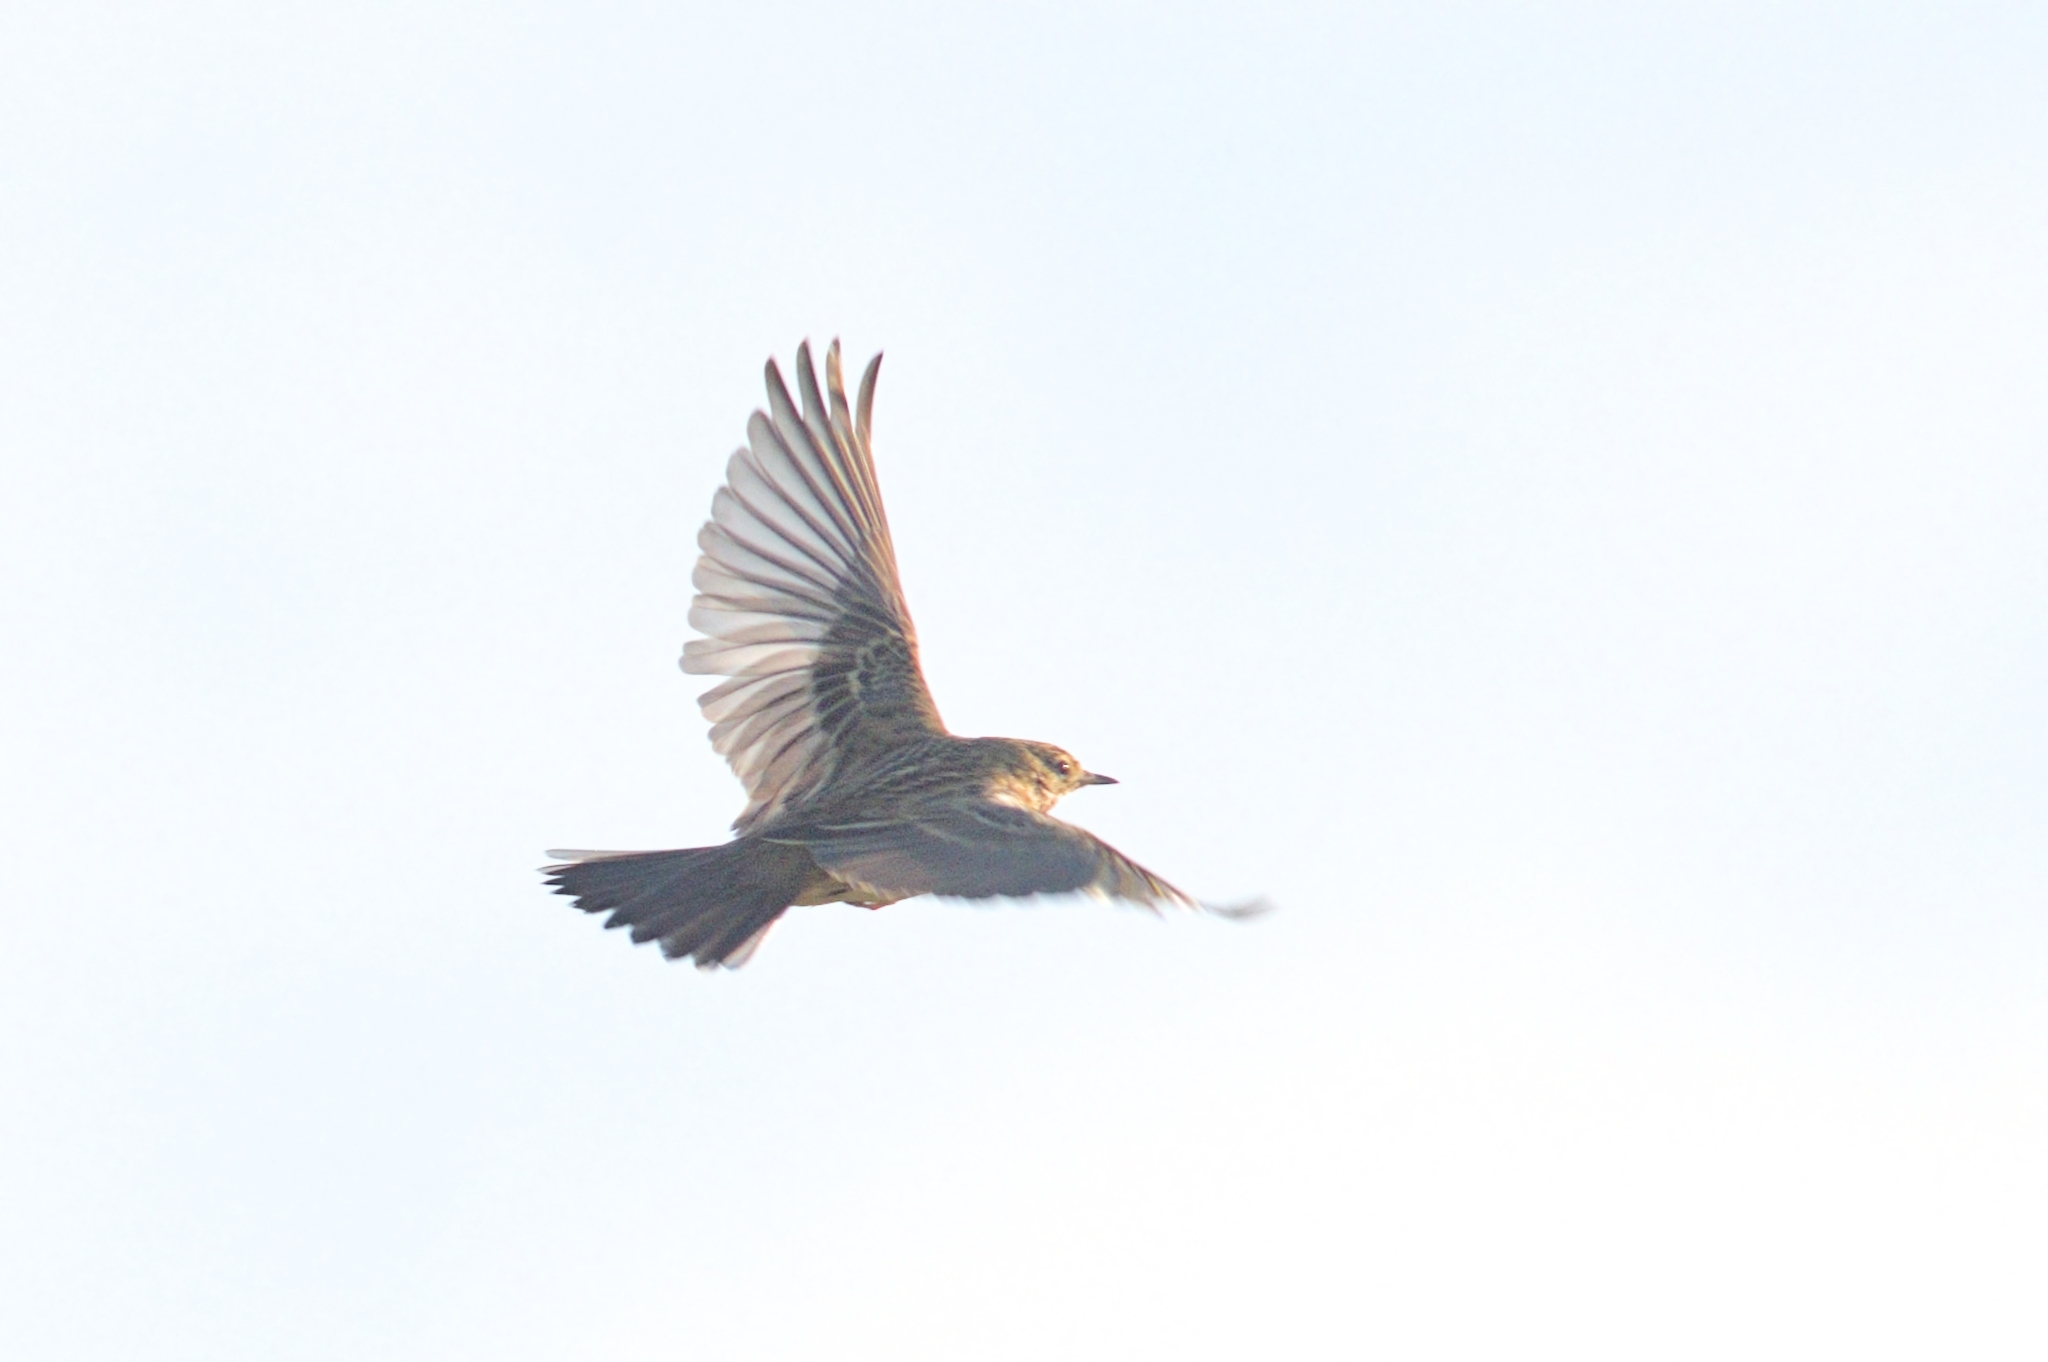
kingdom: Animalia
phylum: Chordata
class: Aves
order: Passeriformes
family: Motacillidae
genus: Anthus
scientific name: Anthus pratensis
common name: Meadow pipit
